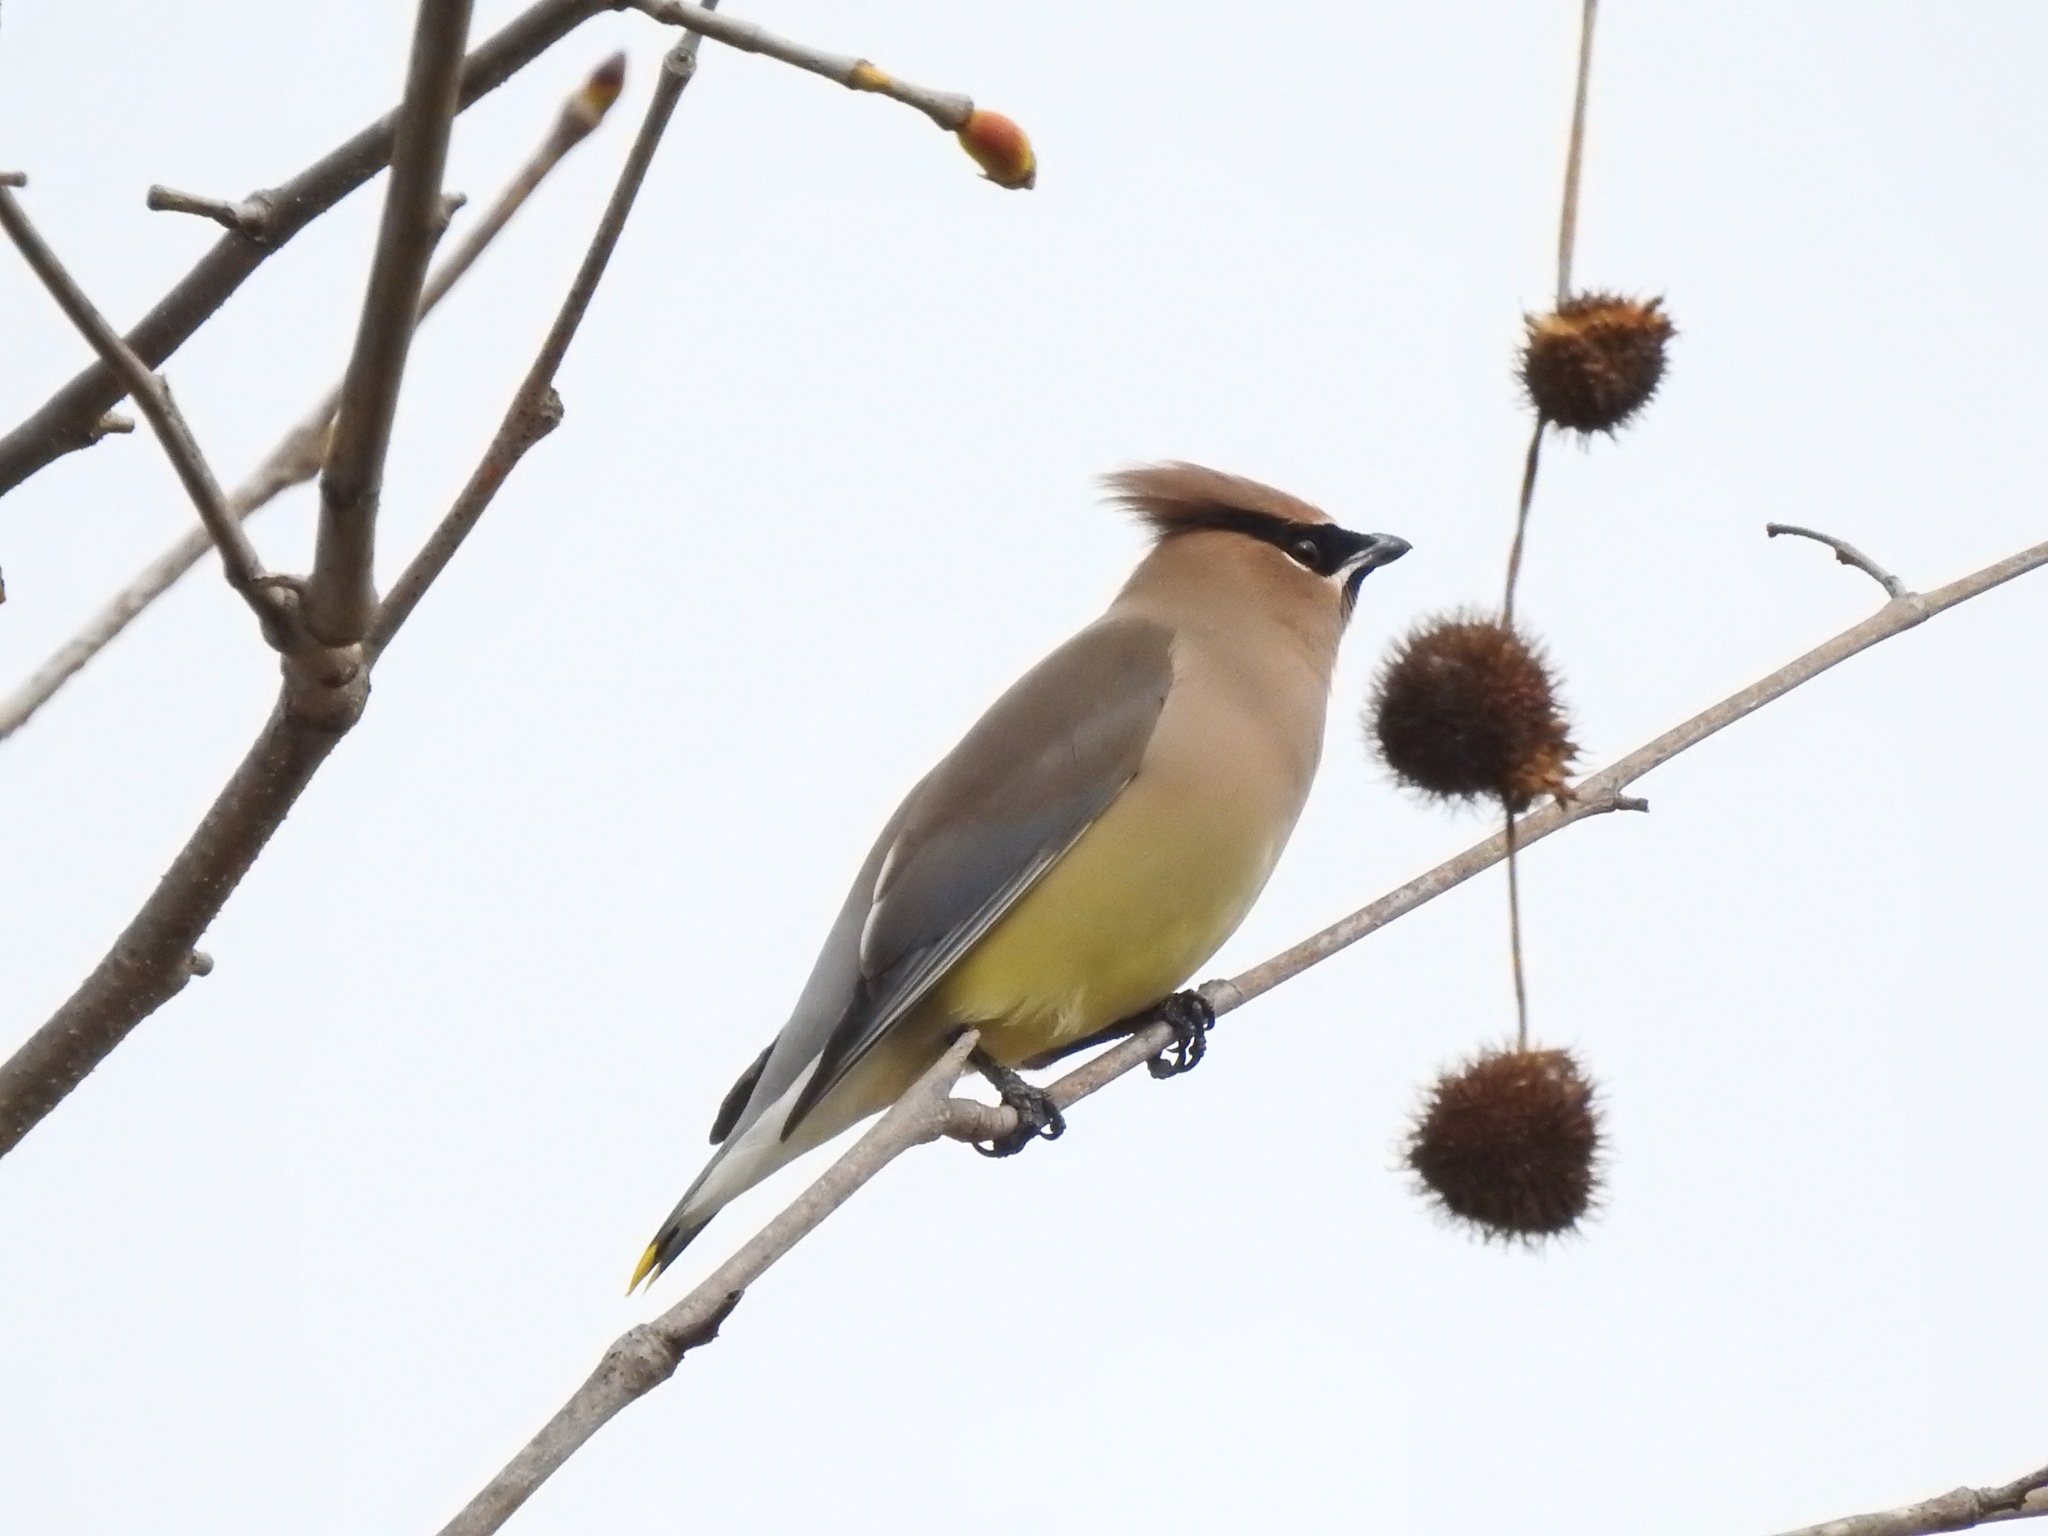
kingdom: Animalia
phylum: Chordata
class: Aves
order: Passeriformes
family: Bombycillidae
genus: Bombycilla
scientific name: Bombycilla cedrorum
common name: Cedar waxwing
